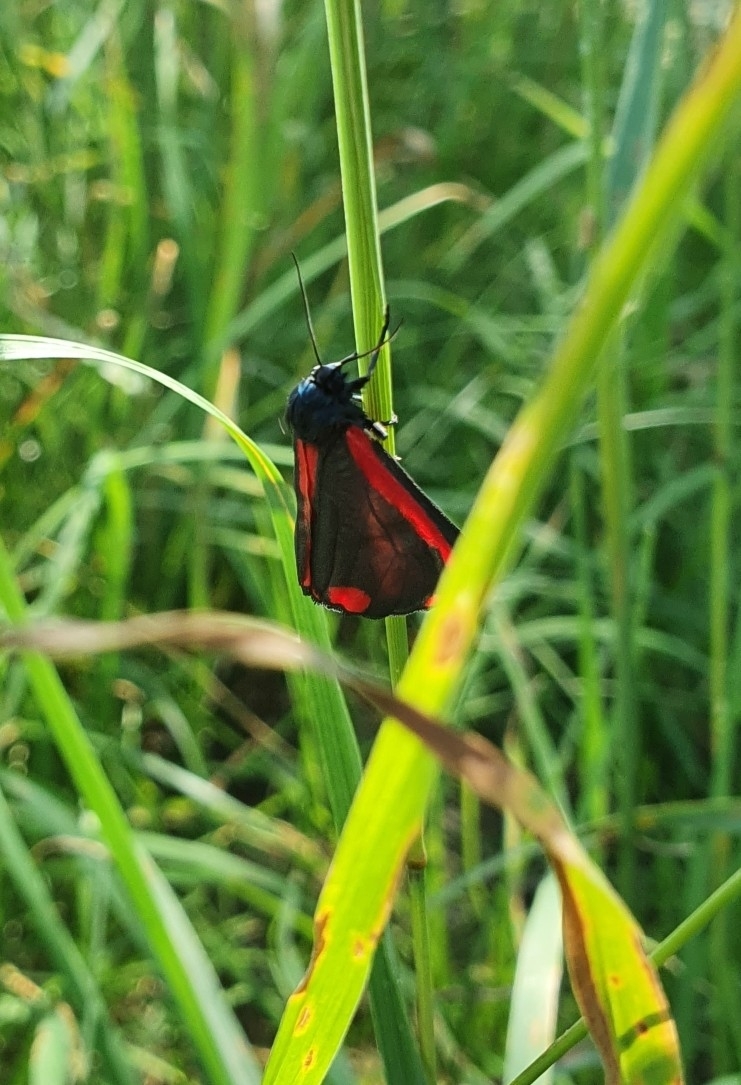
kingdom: Animalia
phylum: Arthropoda
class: Insecta
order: Lepidoptera
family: Erebidae
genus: Tyria
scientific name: Tyria jacobaeae
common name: Cinnabar
